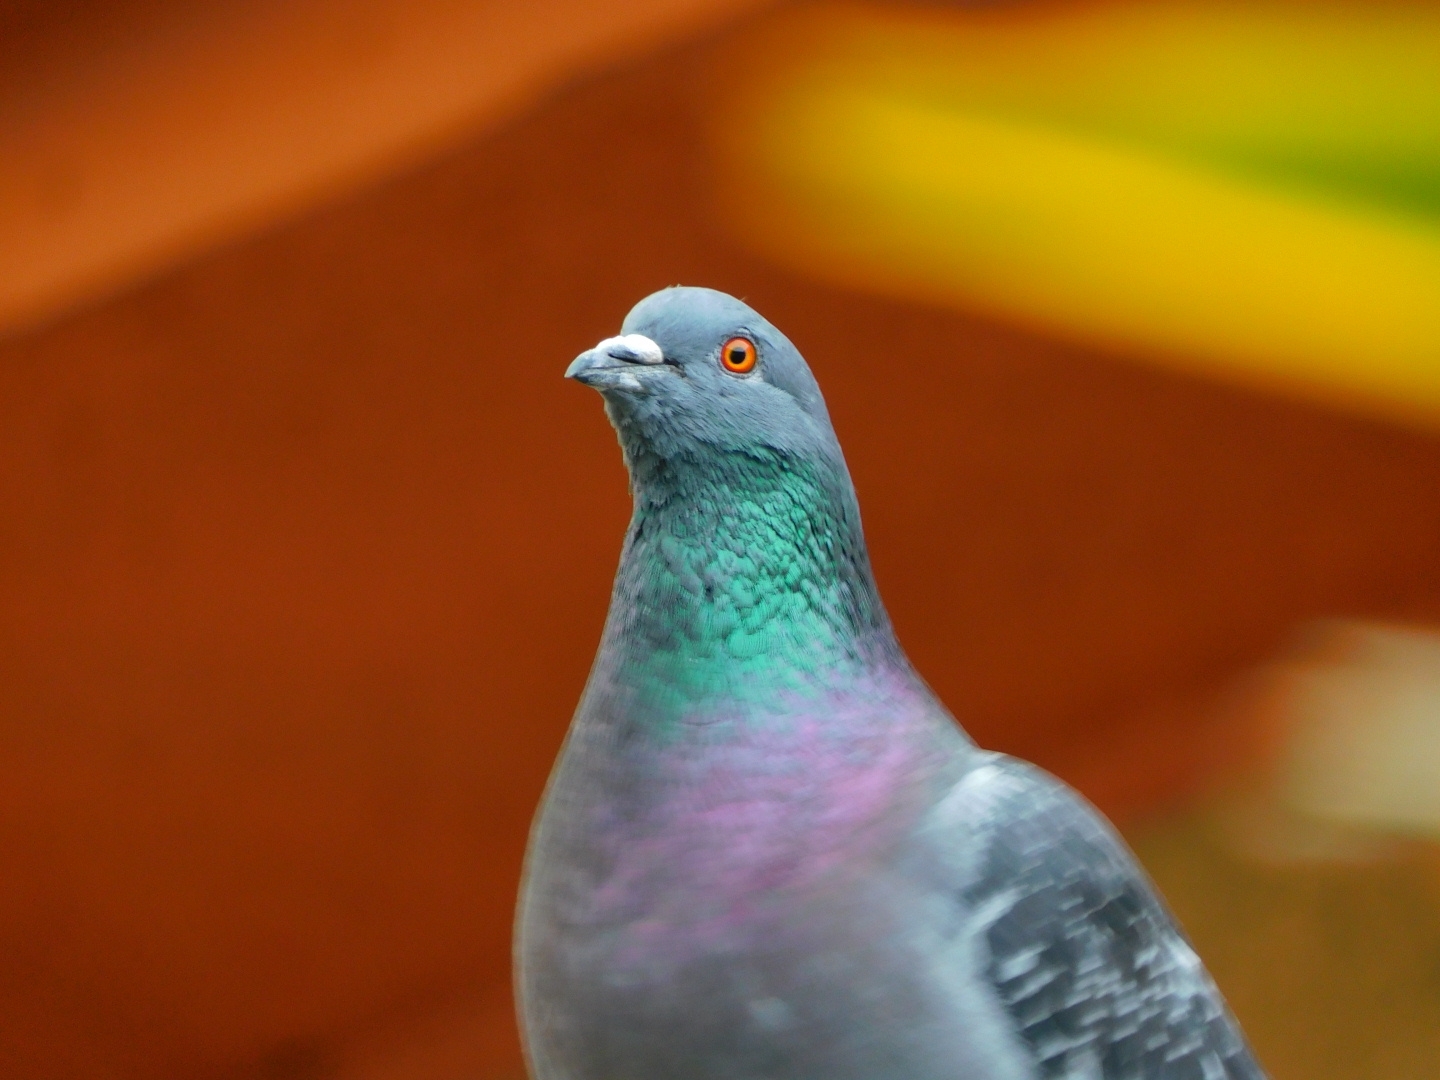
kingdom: Animalia
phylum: Chordata
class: Aves
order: Columbiformes
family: Columbidae
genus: Columba
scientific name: Columba livia
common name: Rock pigeon
